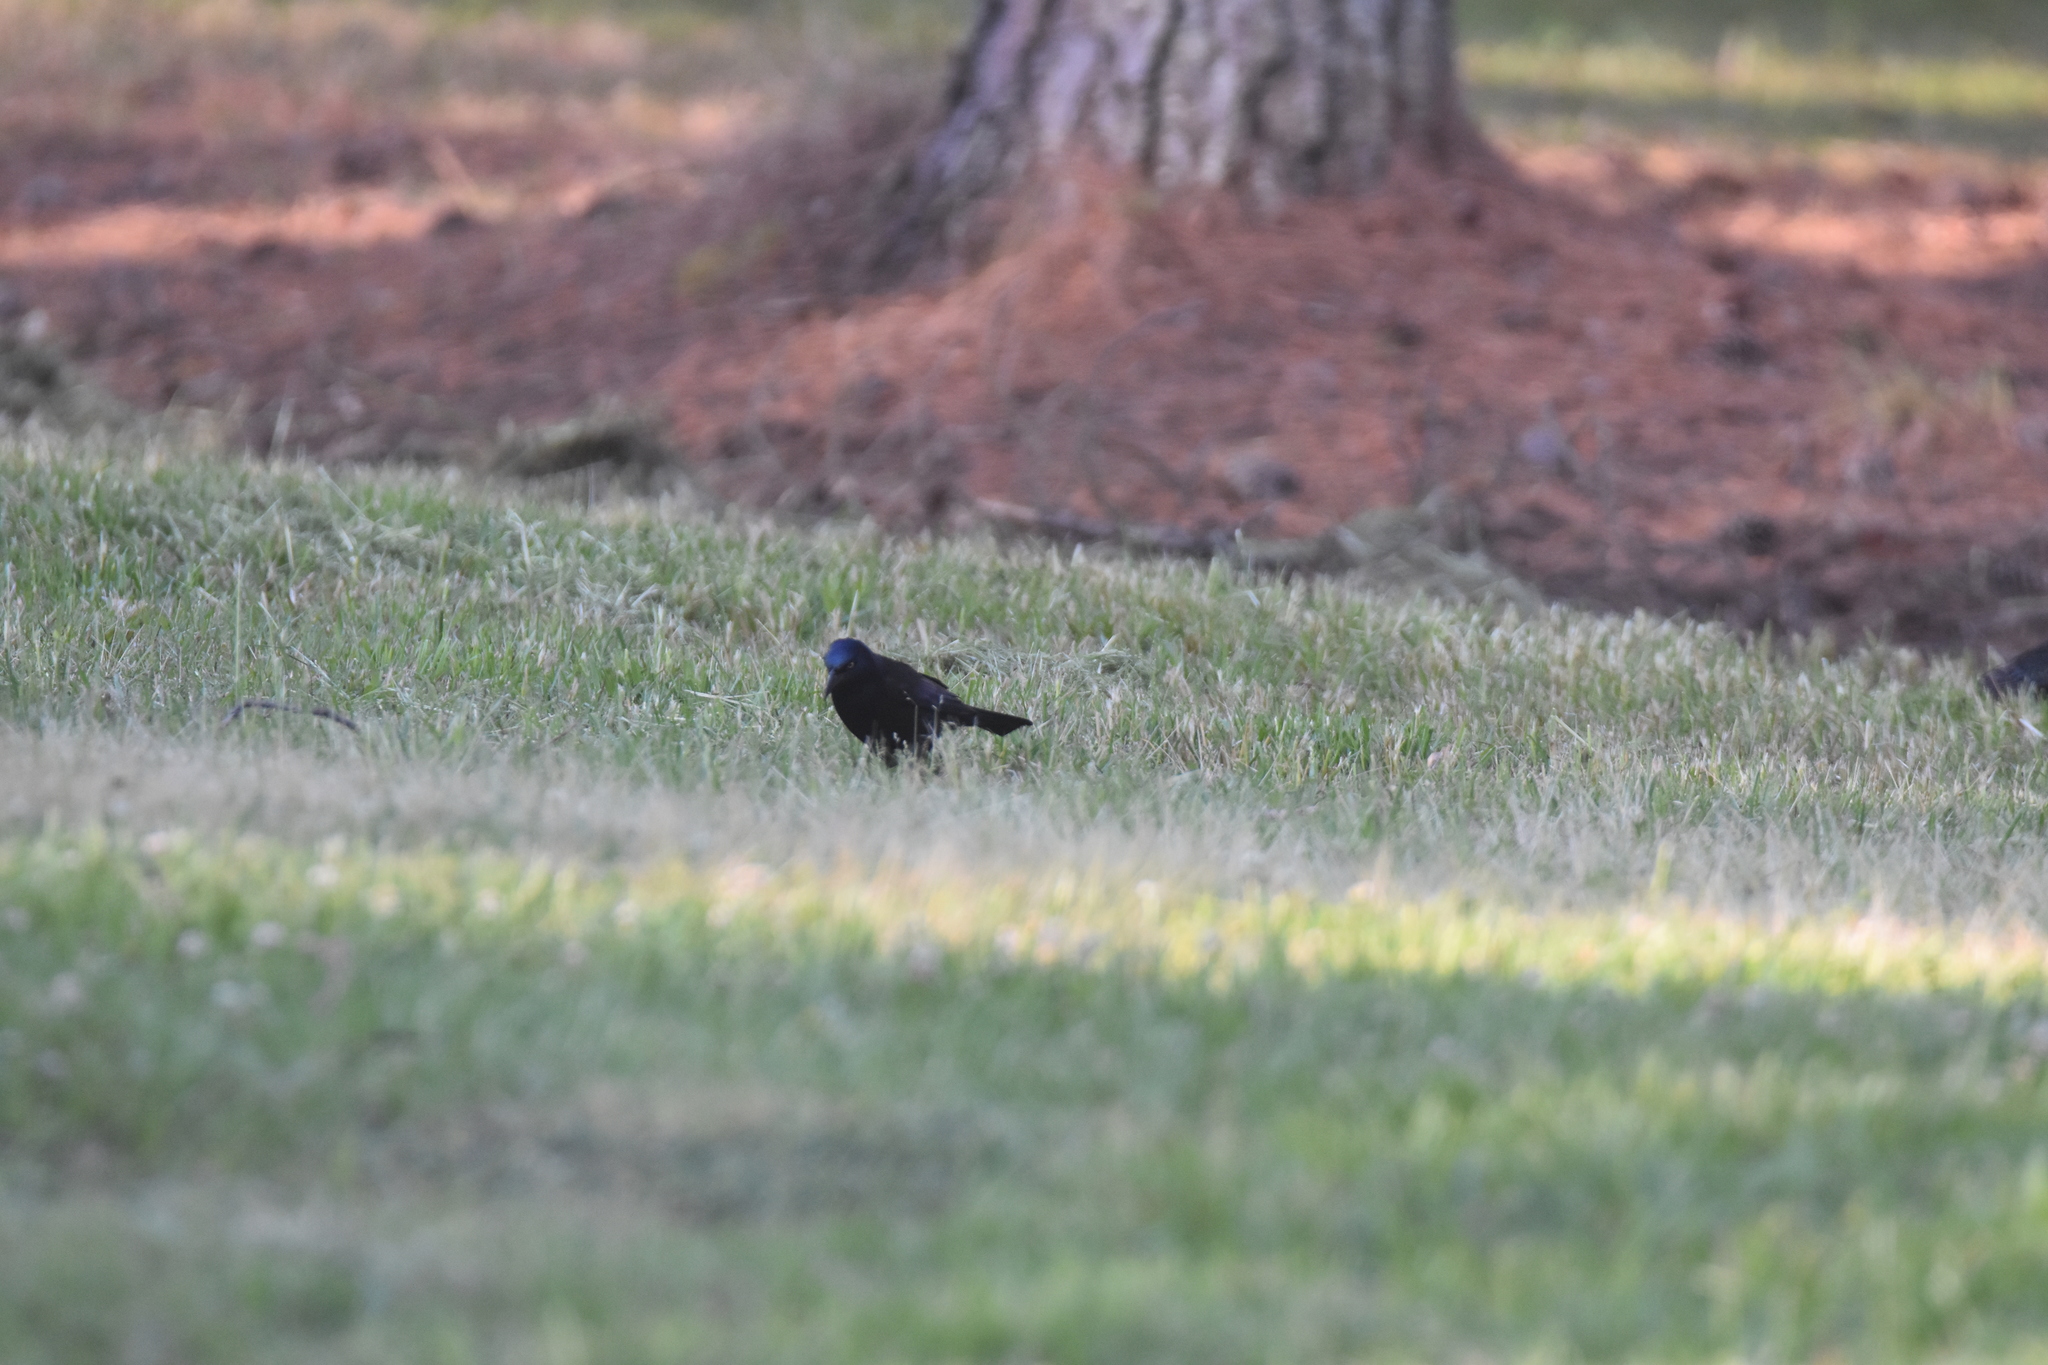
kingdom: Animalia
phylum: Chordata
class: Aves
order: Passeriformes
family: Icteridae
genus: Quiscalus
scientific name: Quiscalus quiscula
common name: Common grackle
